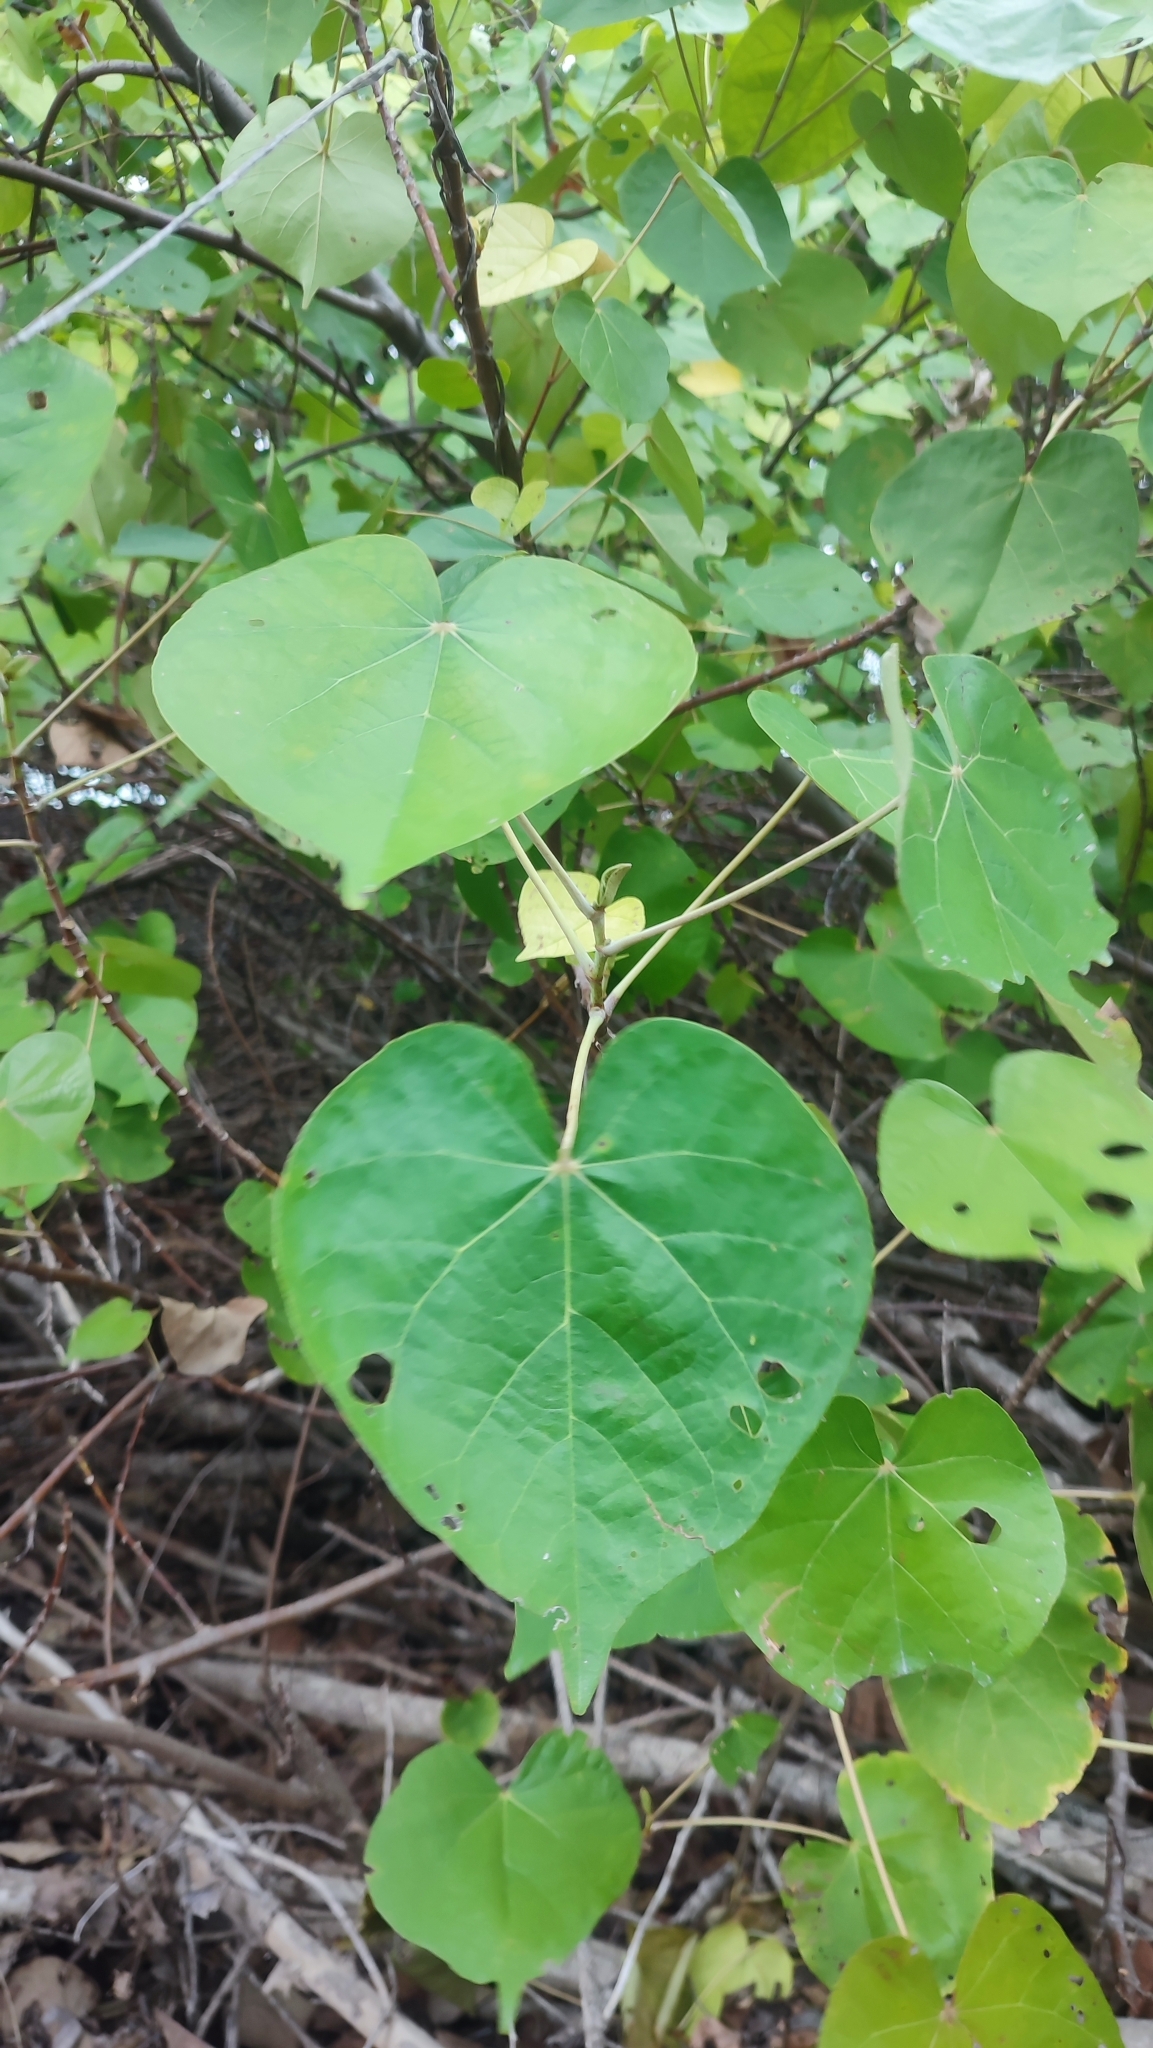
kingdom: Plantae
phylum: Tracheophyta
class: Magnoliopsida
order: Malvales
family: Malvaceae
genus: Talipariti
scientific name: Talipariti tiliaceum
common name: Sea hibiscus
